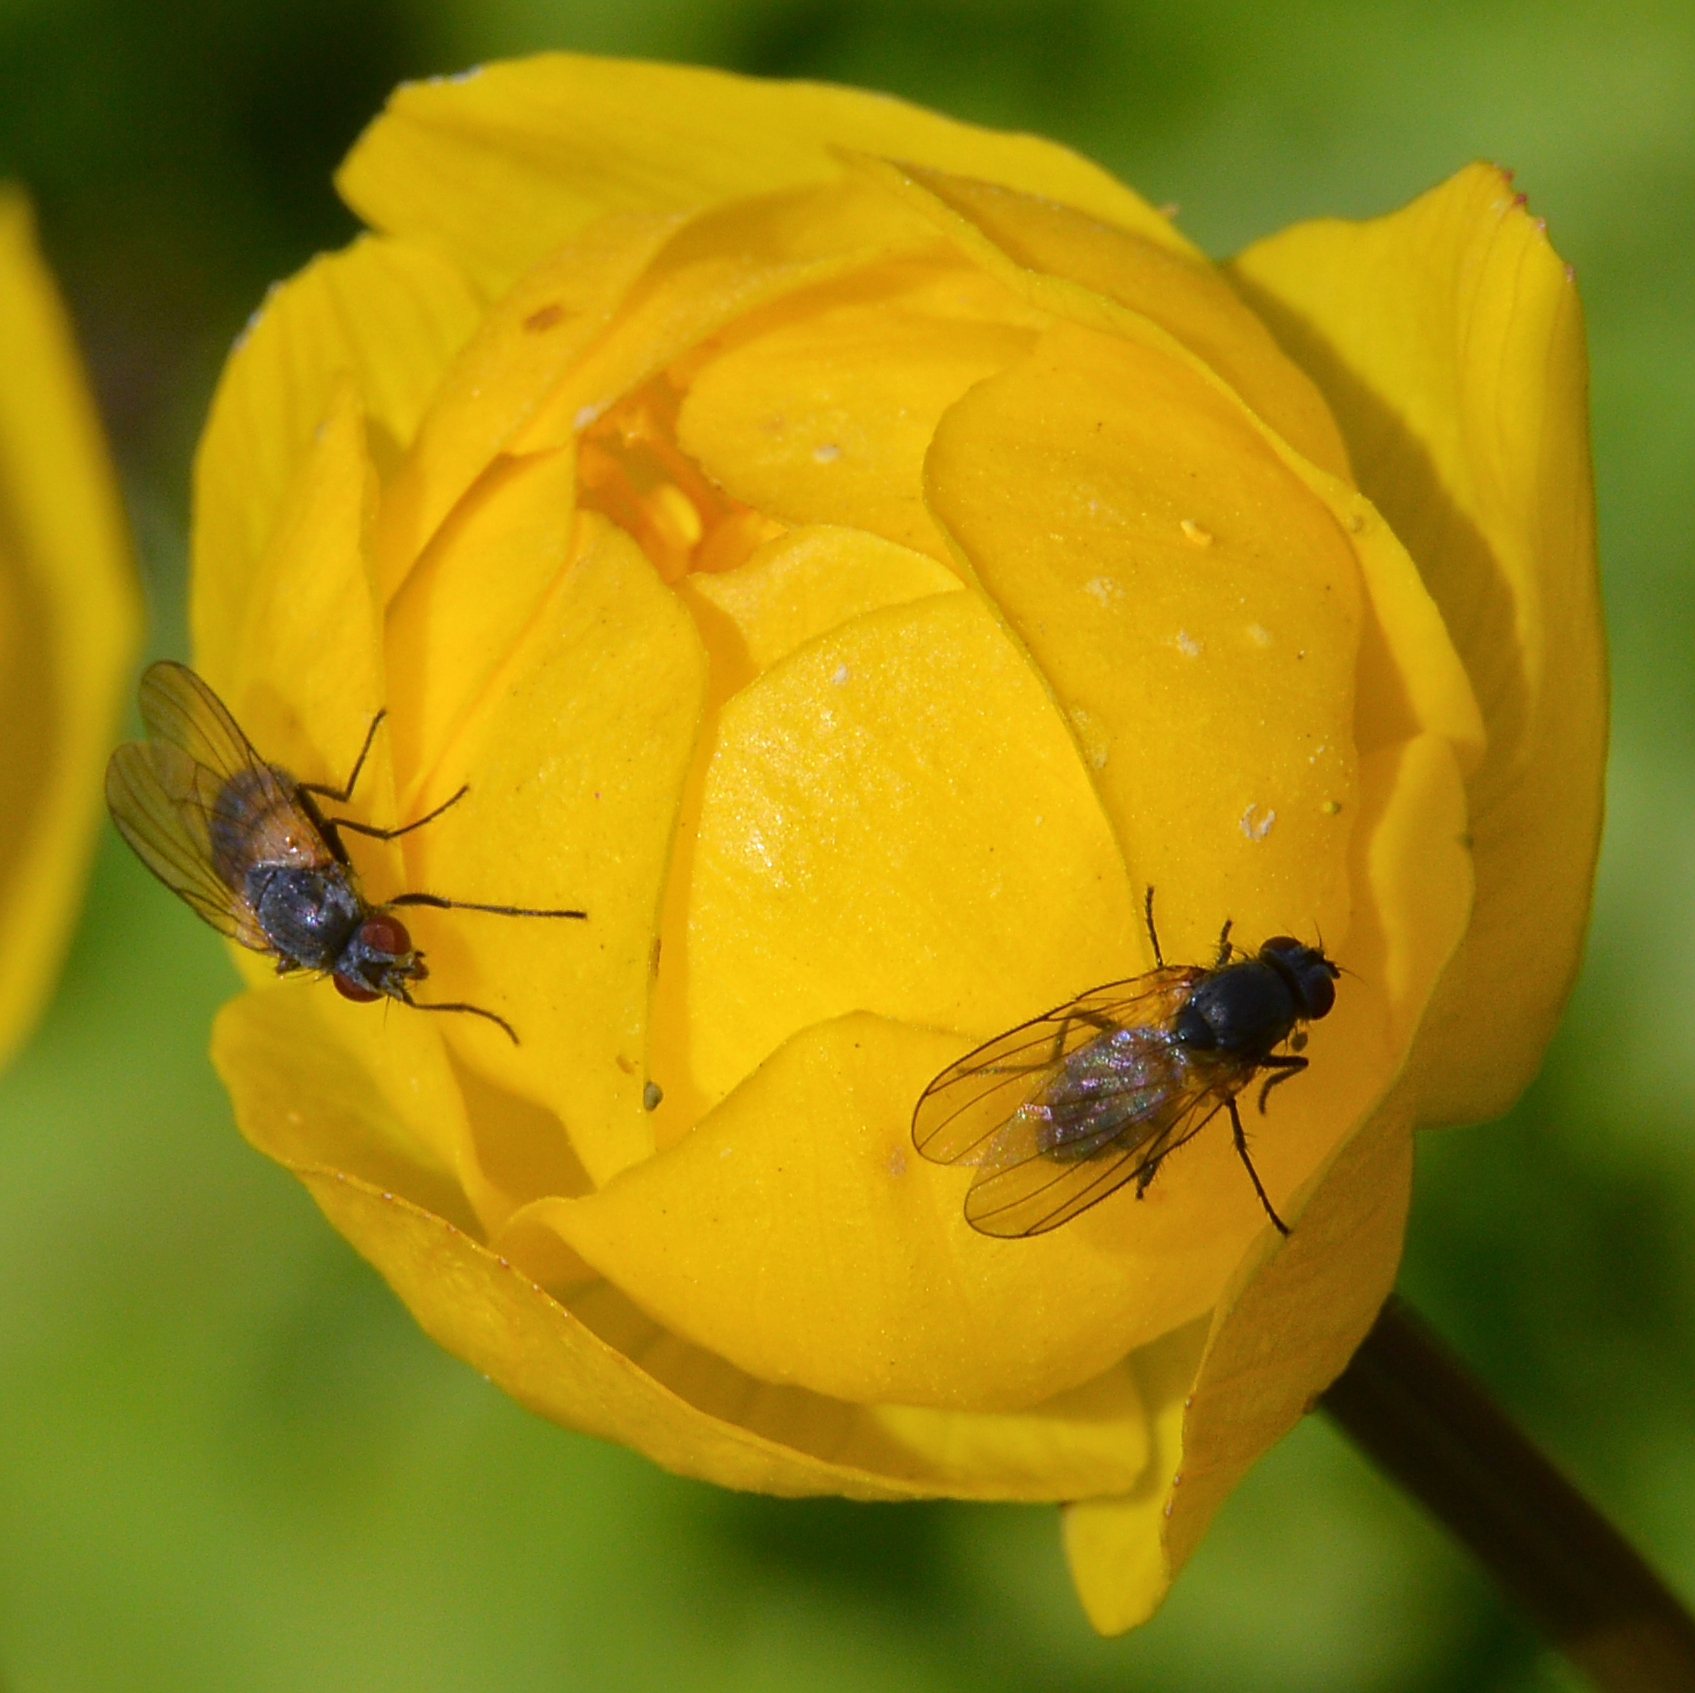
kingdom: Plantae
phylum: Tracheophyta
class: Magnoliopsida
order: Ranunculales
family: Ranunculaceae
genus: Trollius
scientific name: Trollius europaeus
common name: European globeflower
